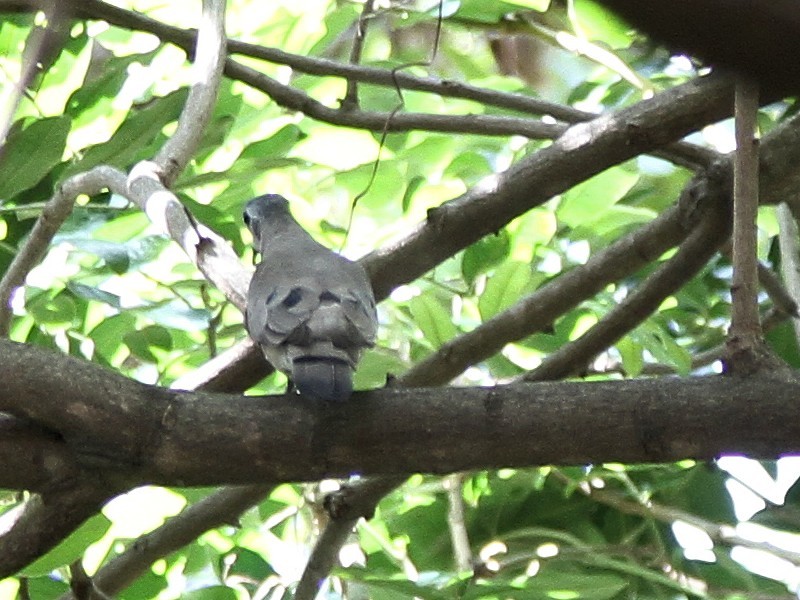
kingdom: Animalia
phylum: Chordata
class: Aves
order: Columbiformes
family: Columbidae
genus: Turtur
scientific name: Turtur chalcospilos
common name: Emerald-spotted wood dove
